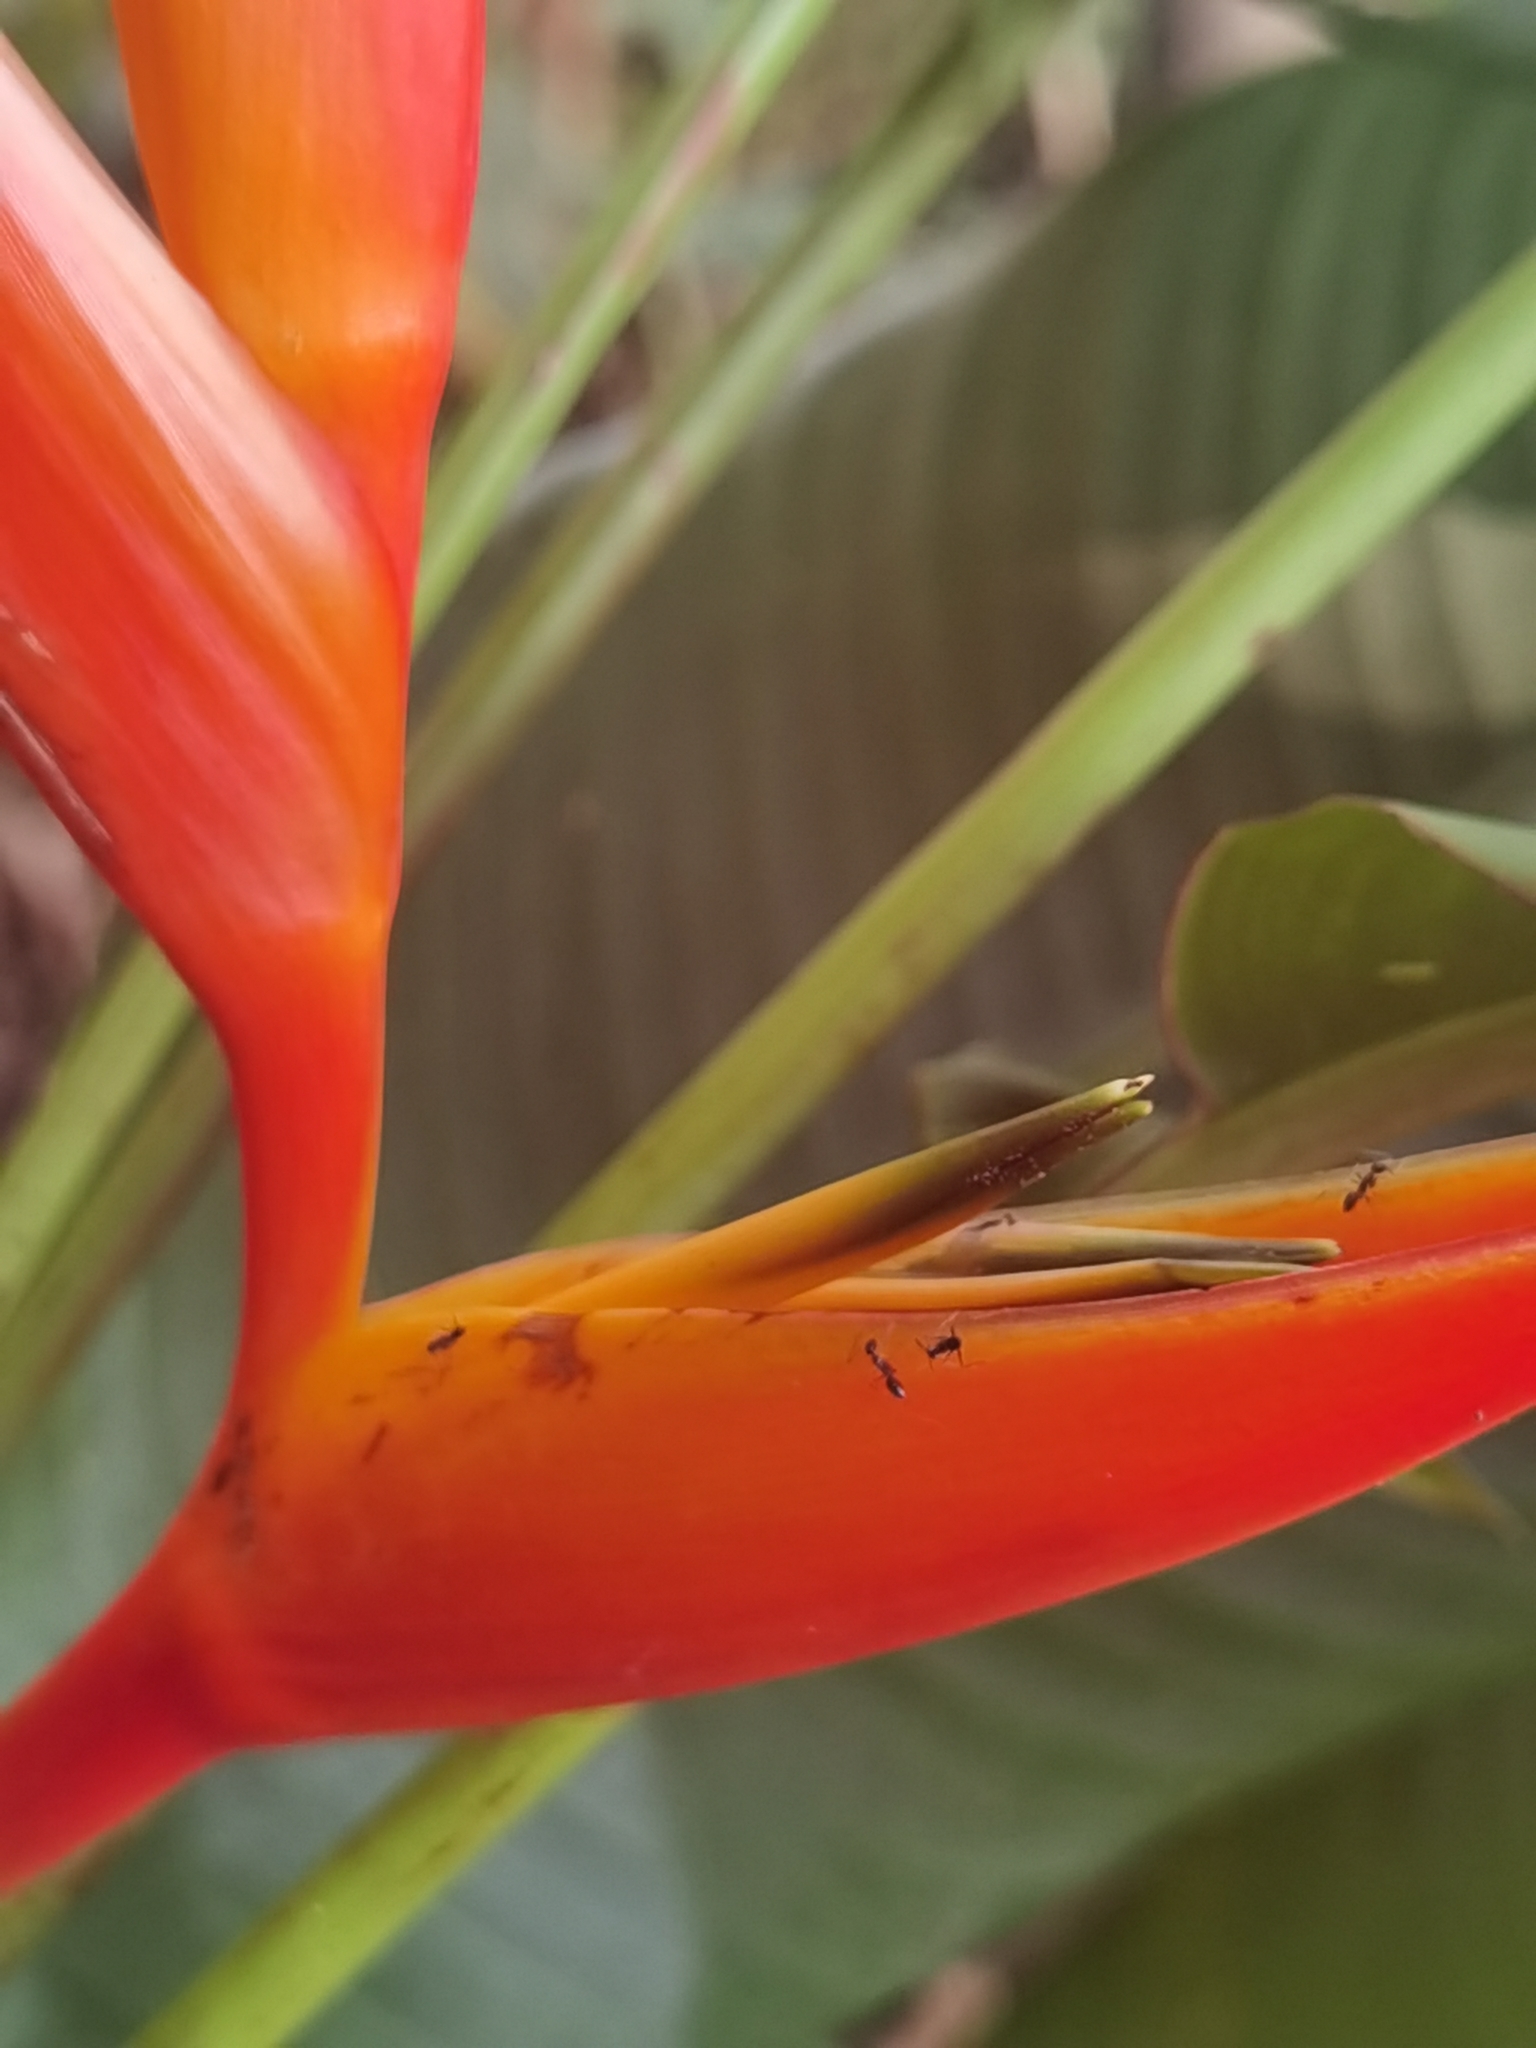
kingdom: Plantae
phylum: Tracheophyta
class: Liliopsida
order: Zingiberales
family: Heliconiaceae
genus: Heliconia
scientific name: Heliconia psittacorum
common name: Parrot's-flower
